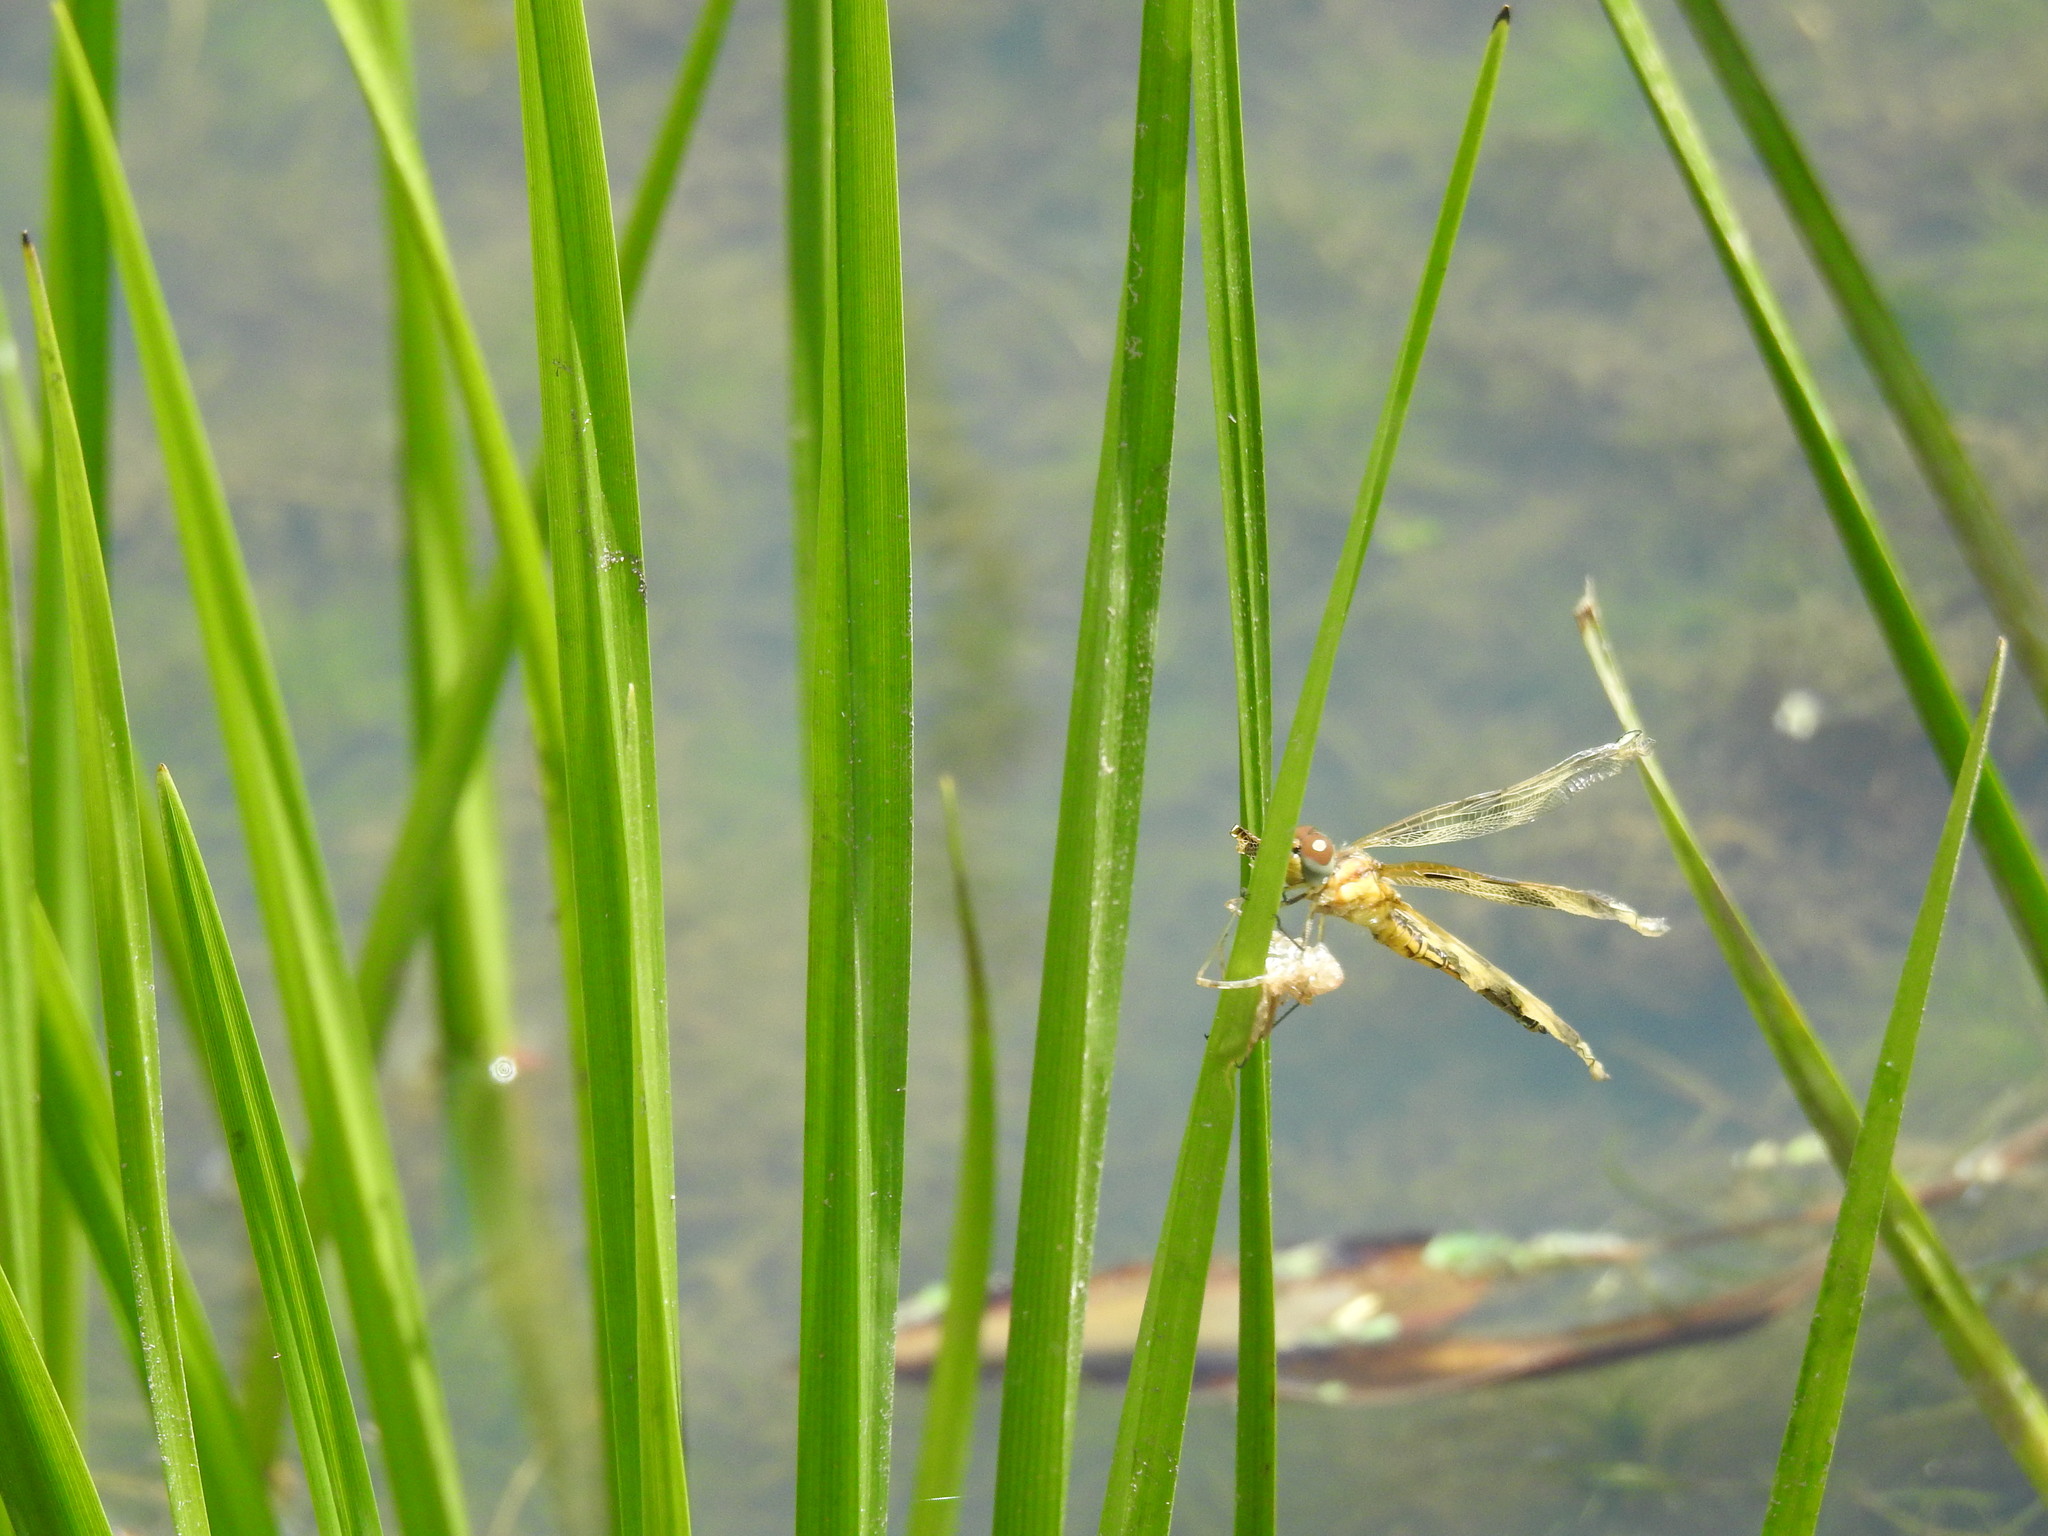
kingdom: Animalia
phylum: Arthropoda
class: Insecta
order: Odonata
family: Libellulidae
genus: Celithemis
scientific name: Celithemis eponina
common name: Halloween pennant
